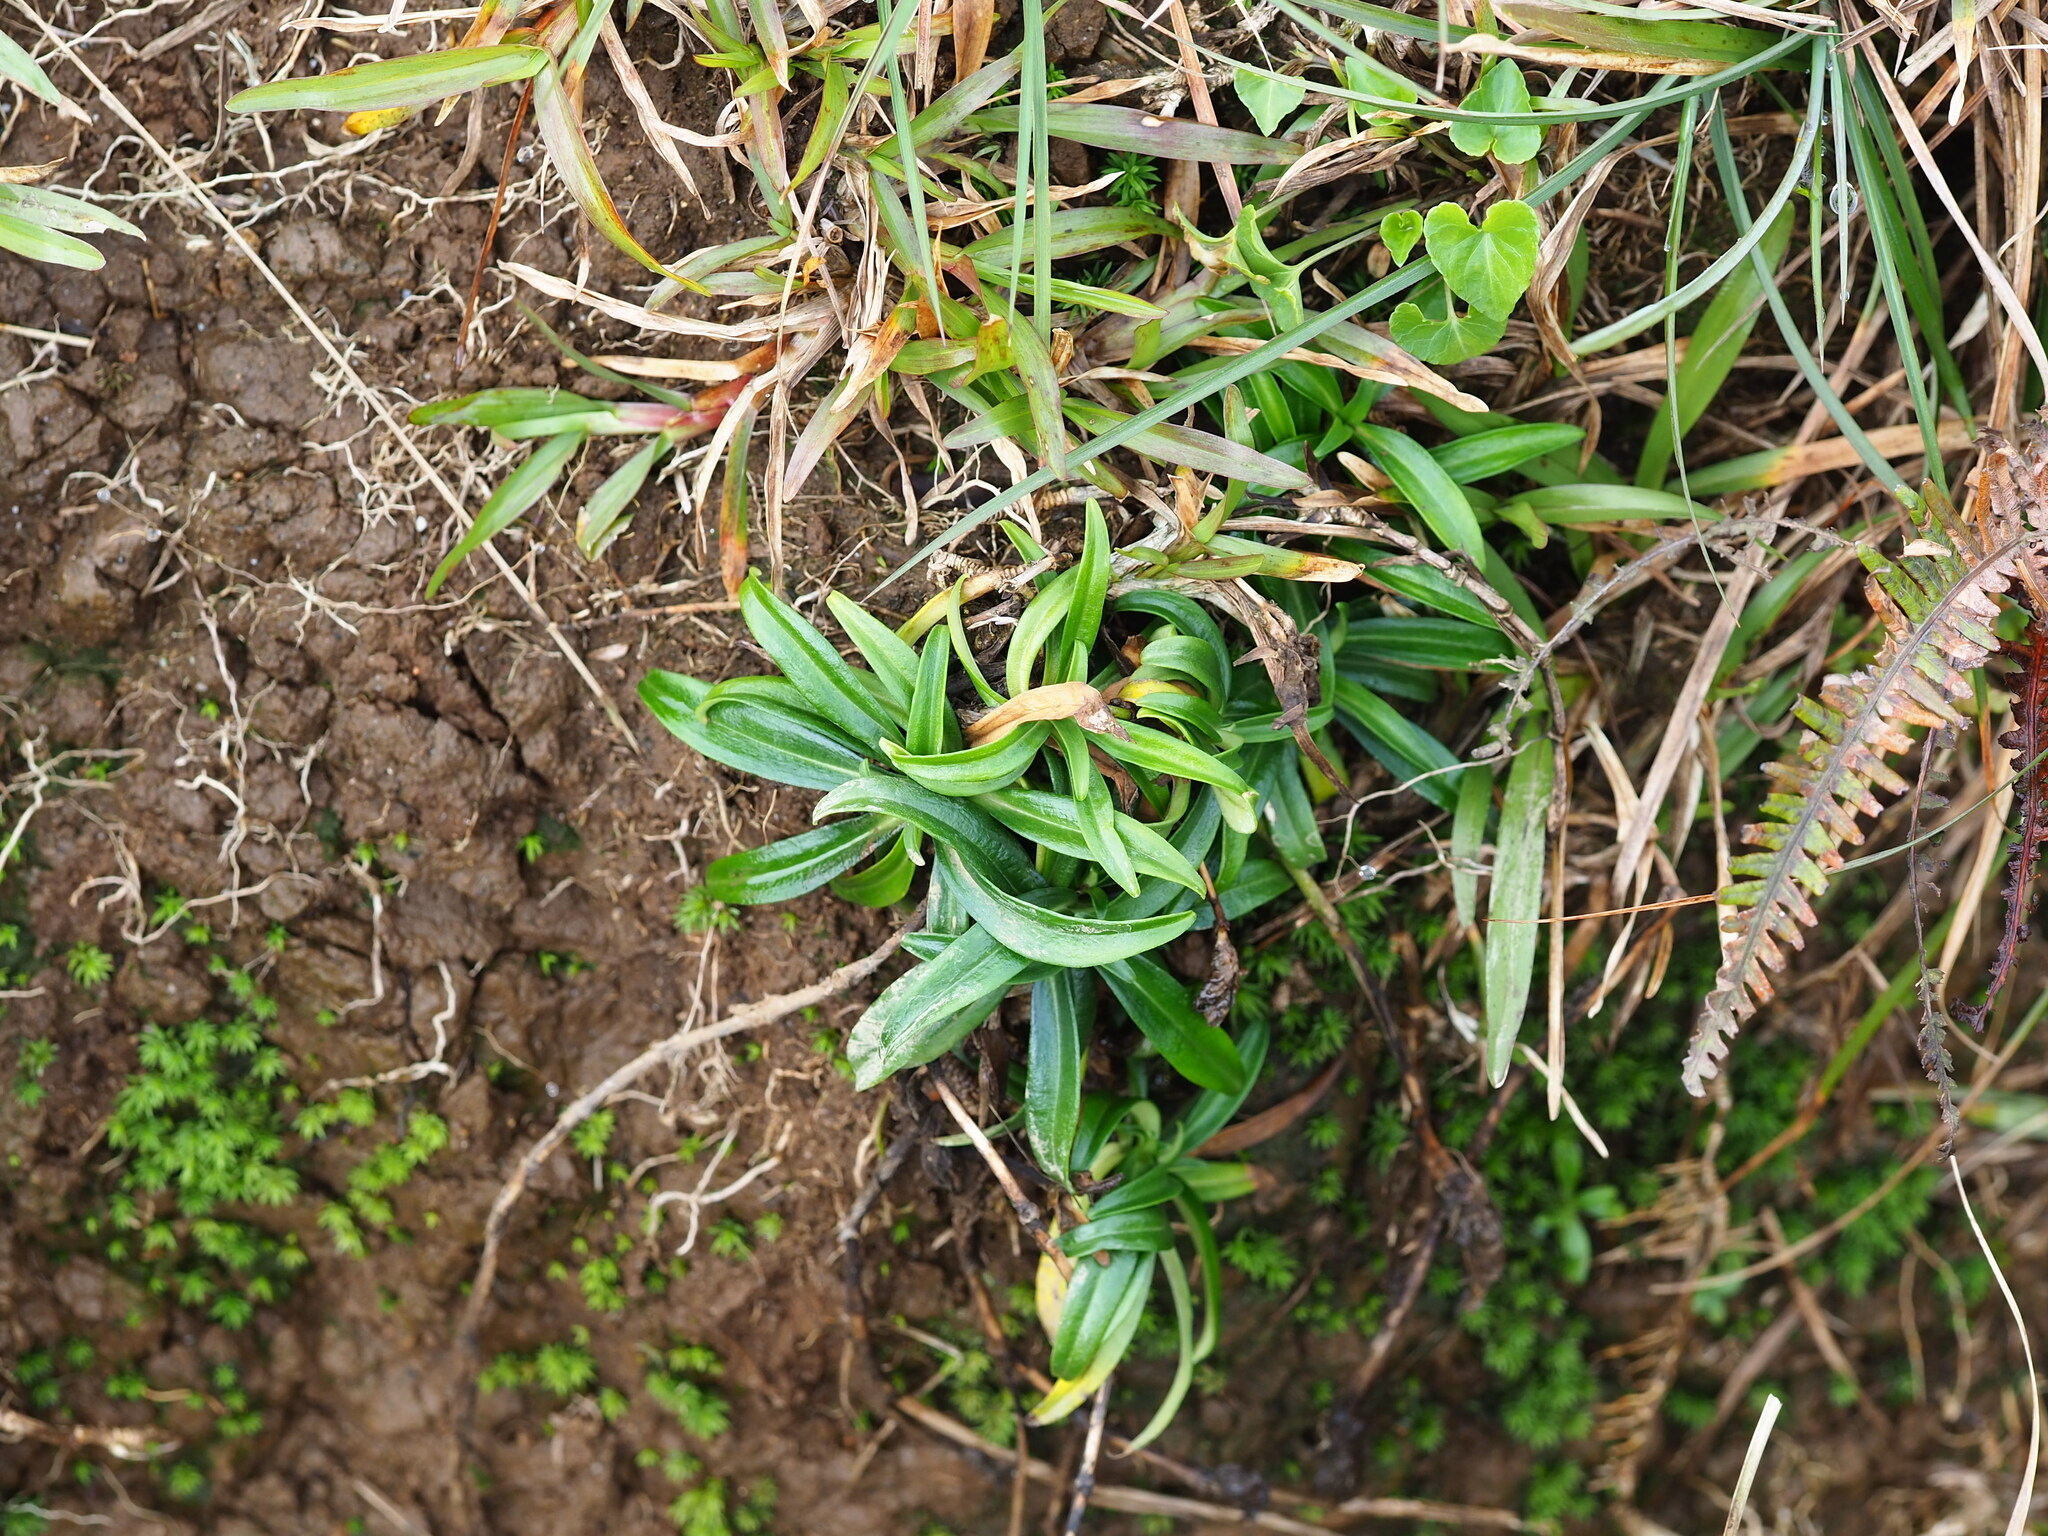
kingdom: Plantae
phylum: Tracheophyta
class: Magnoliopsida
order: Gentianales
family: Gentianaceae
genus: Gentiana
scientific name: Gentiana davidii
